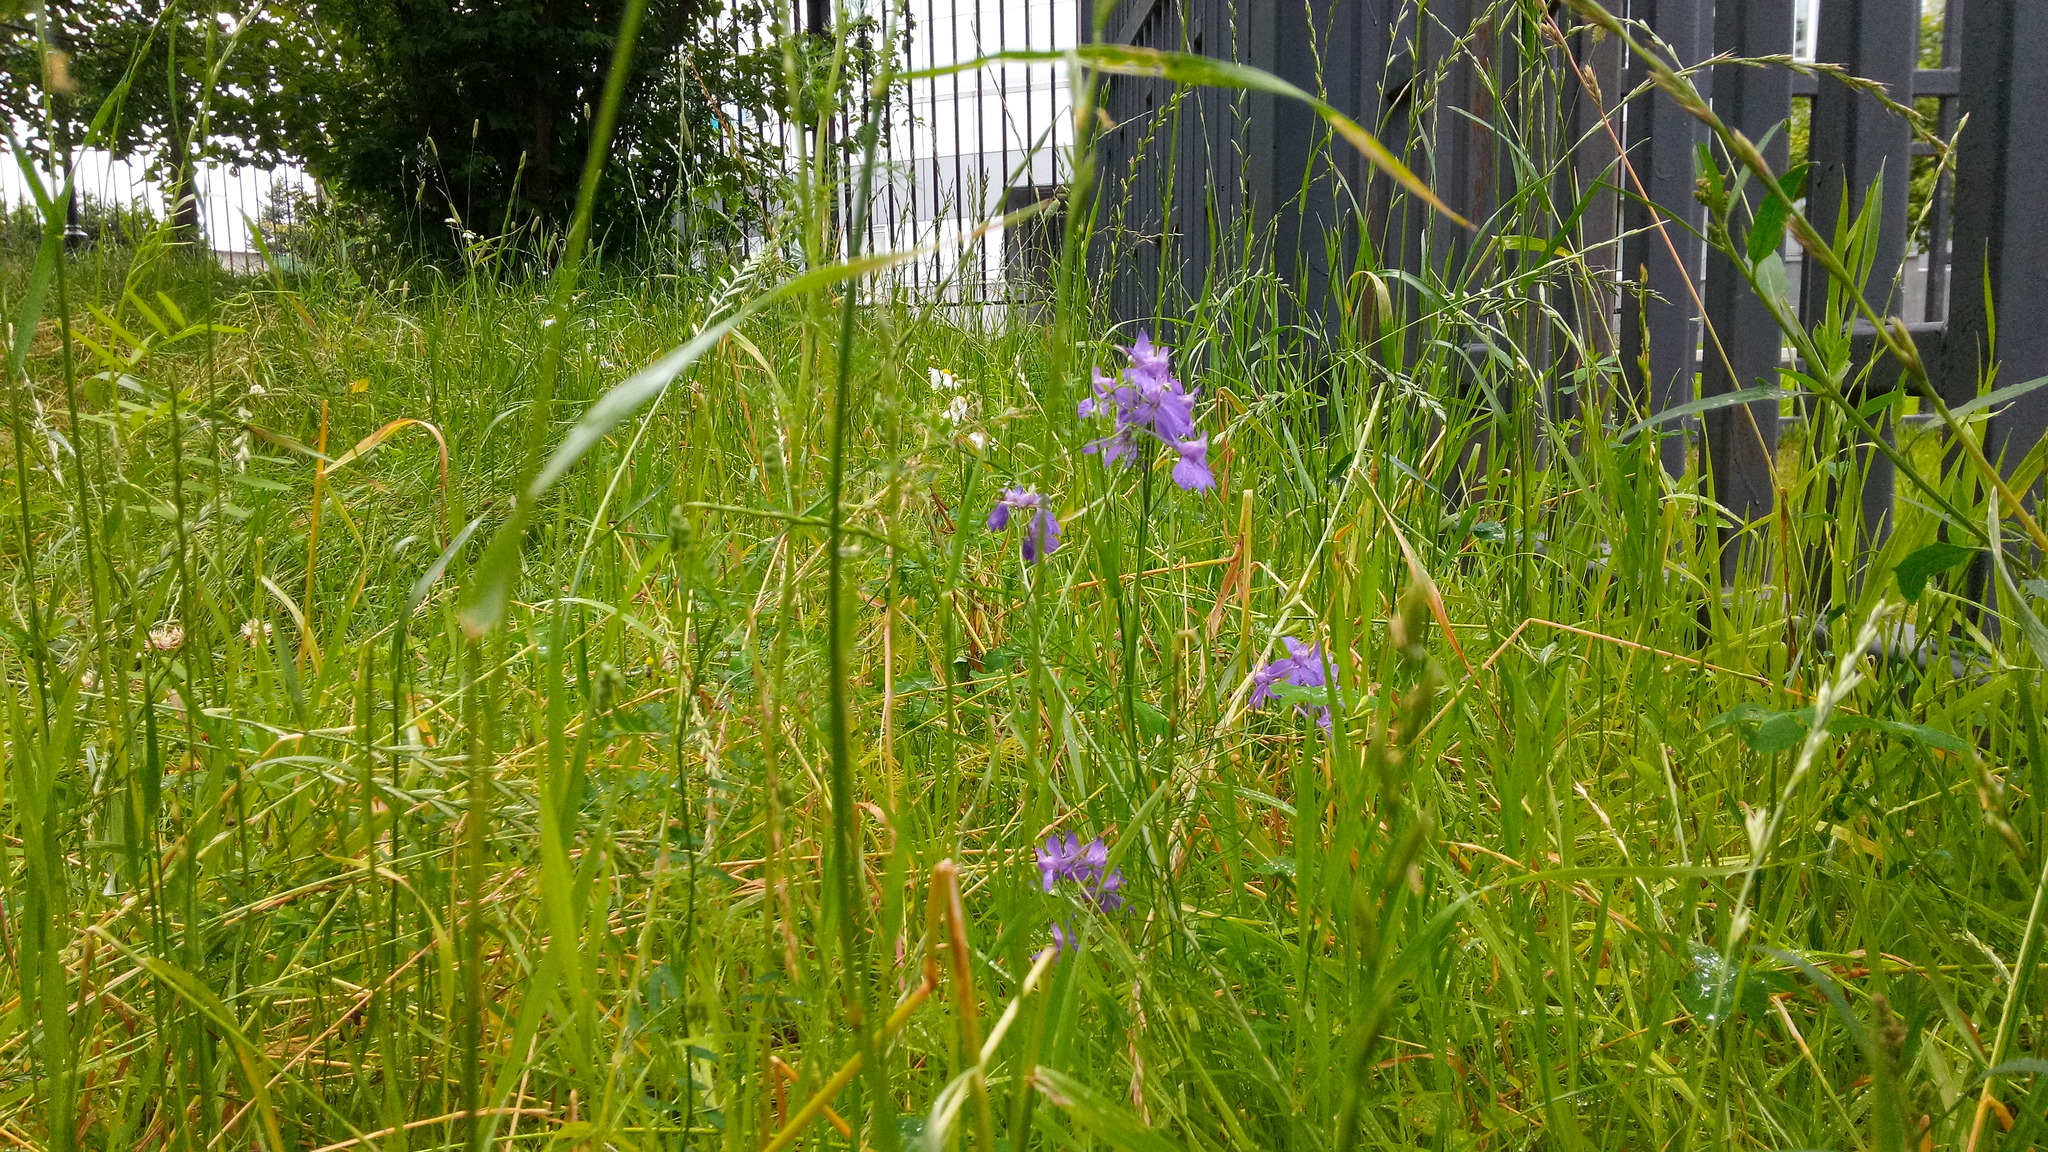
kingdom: Plantae
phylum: Tracheophyta
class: Magnoliopsida
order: Ranunculales
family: Ranunculaceae
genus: Delphinium
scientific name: Delphinium consolida
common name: Branching larkspur
